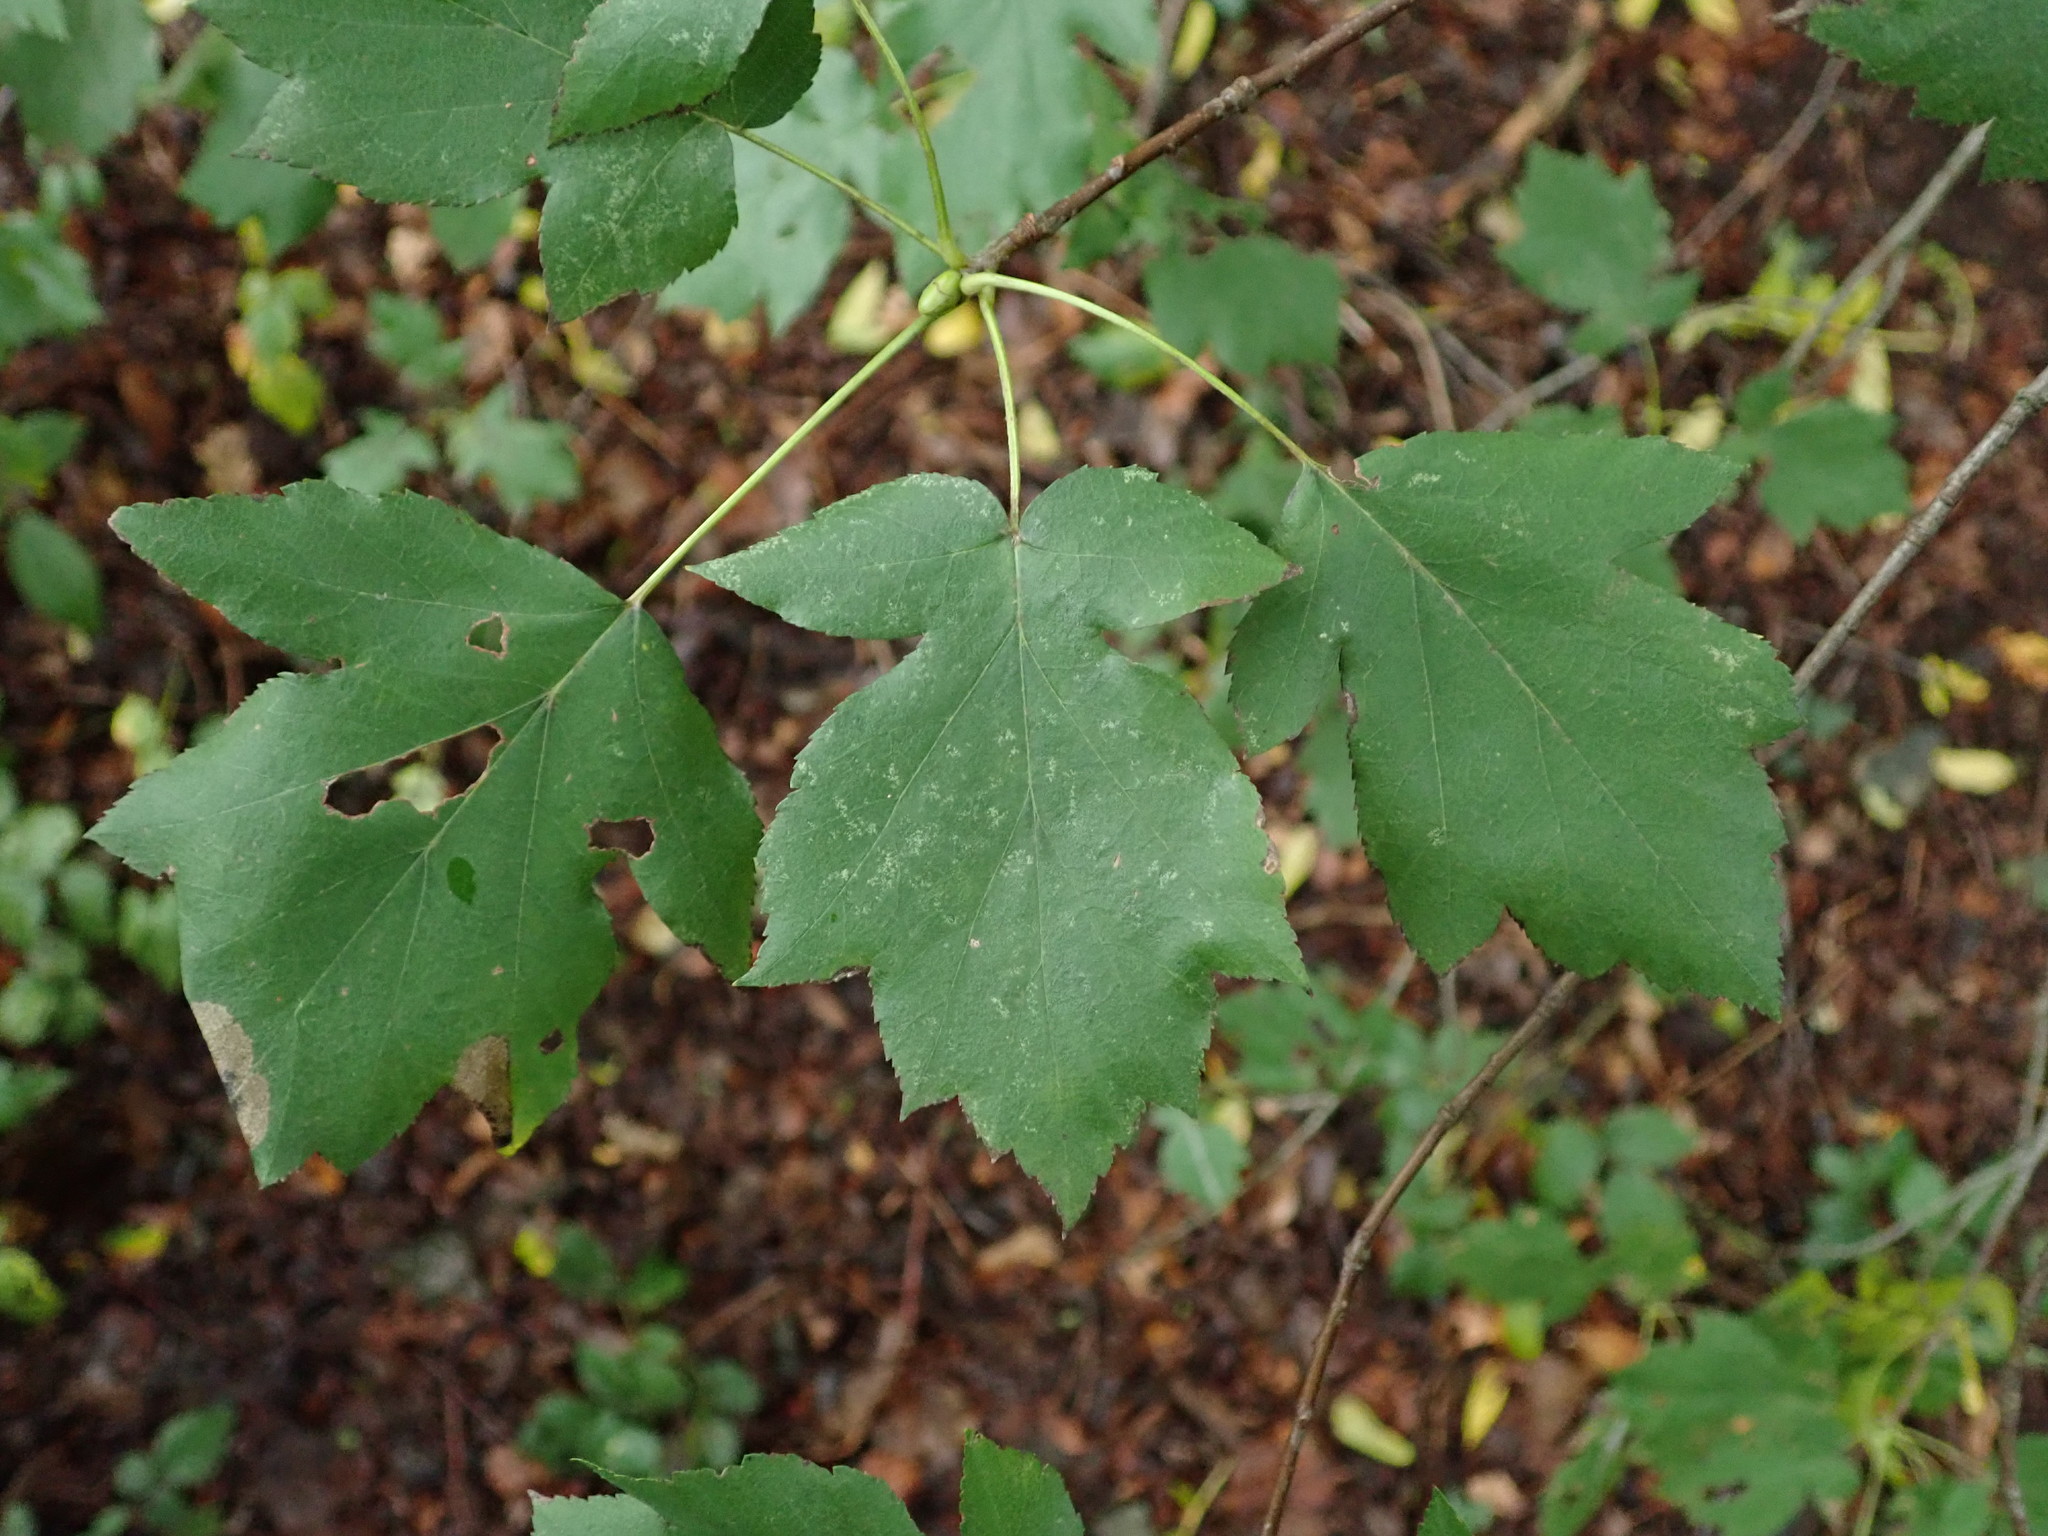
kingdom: Plantae
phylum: Tracheophyta
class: Magnoliopsida
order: Rosales
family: Rosaceae
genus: Torminalis
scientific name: Torminalis glaberrima
